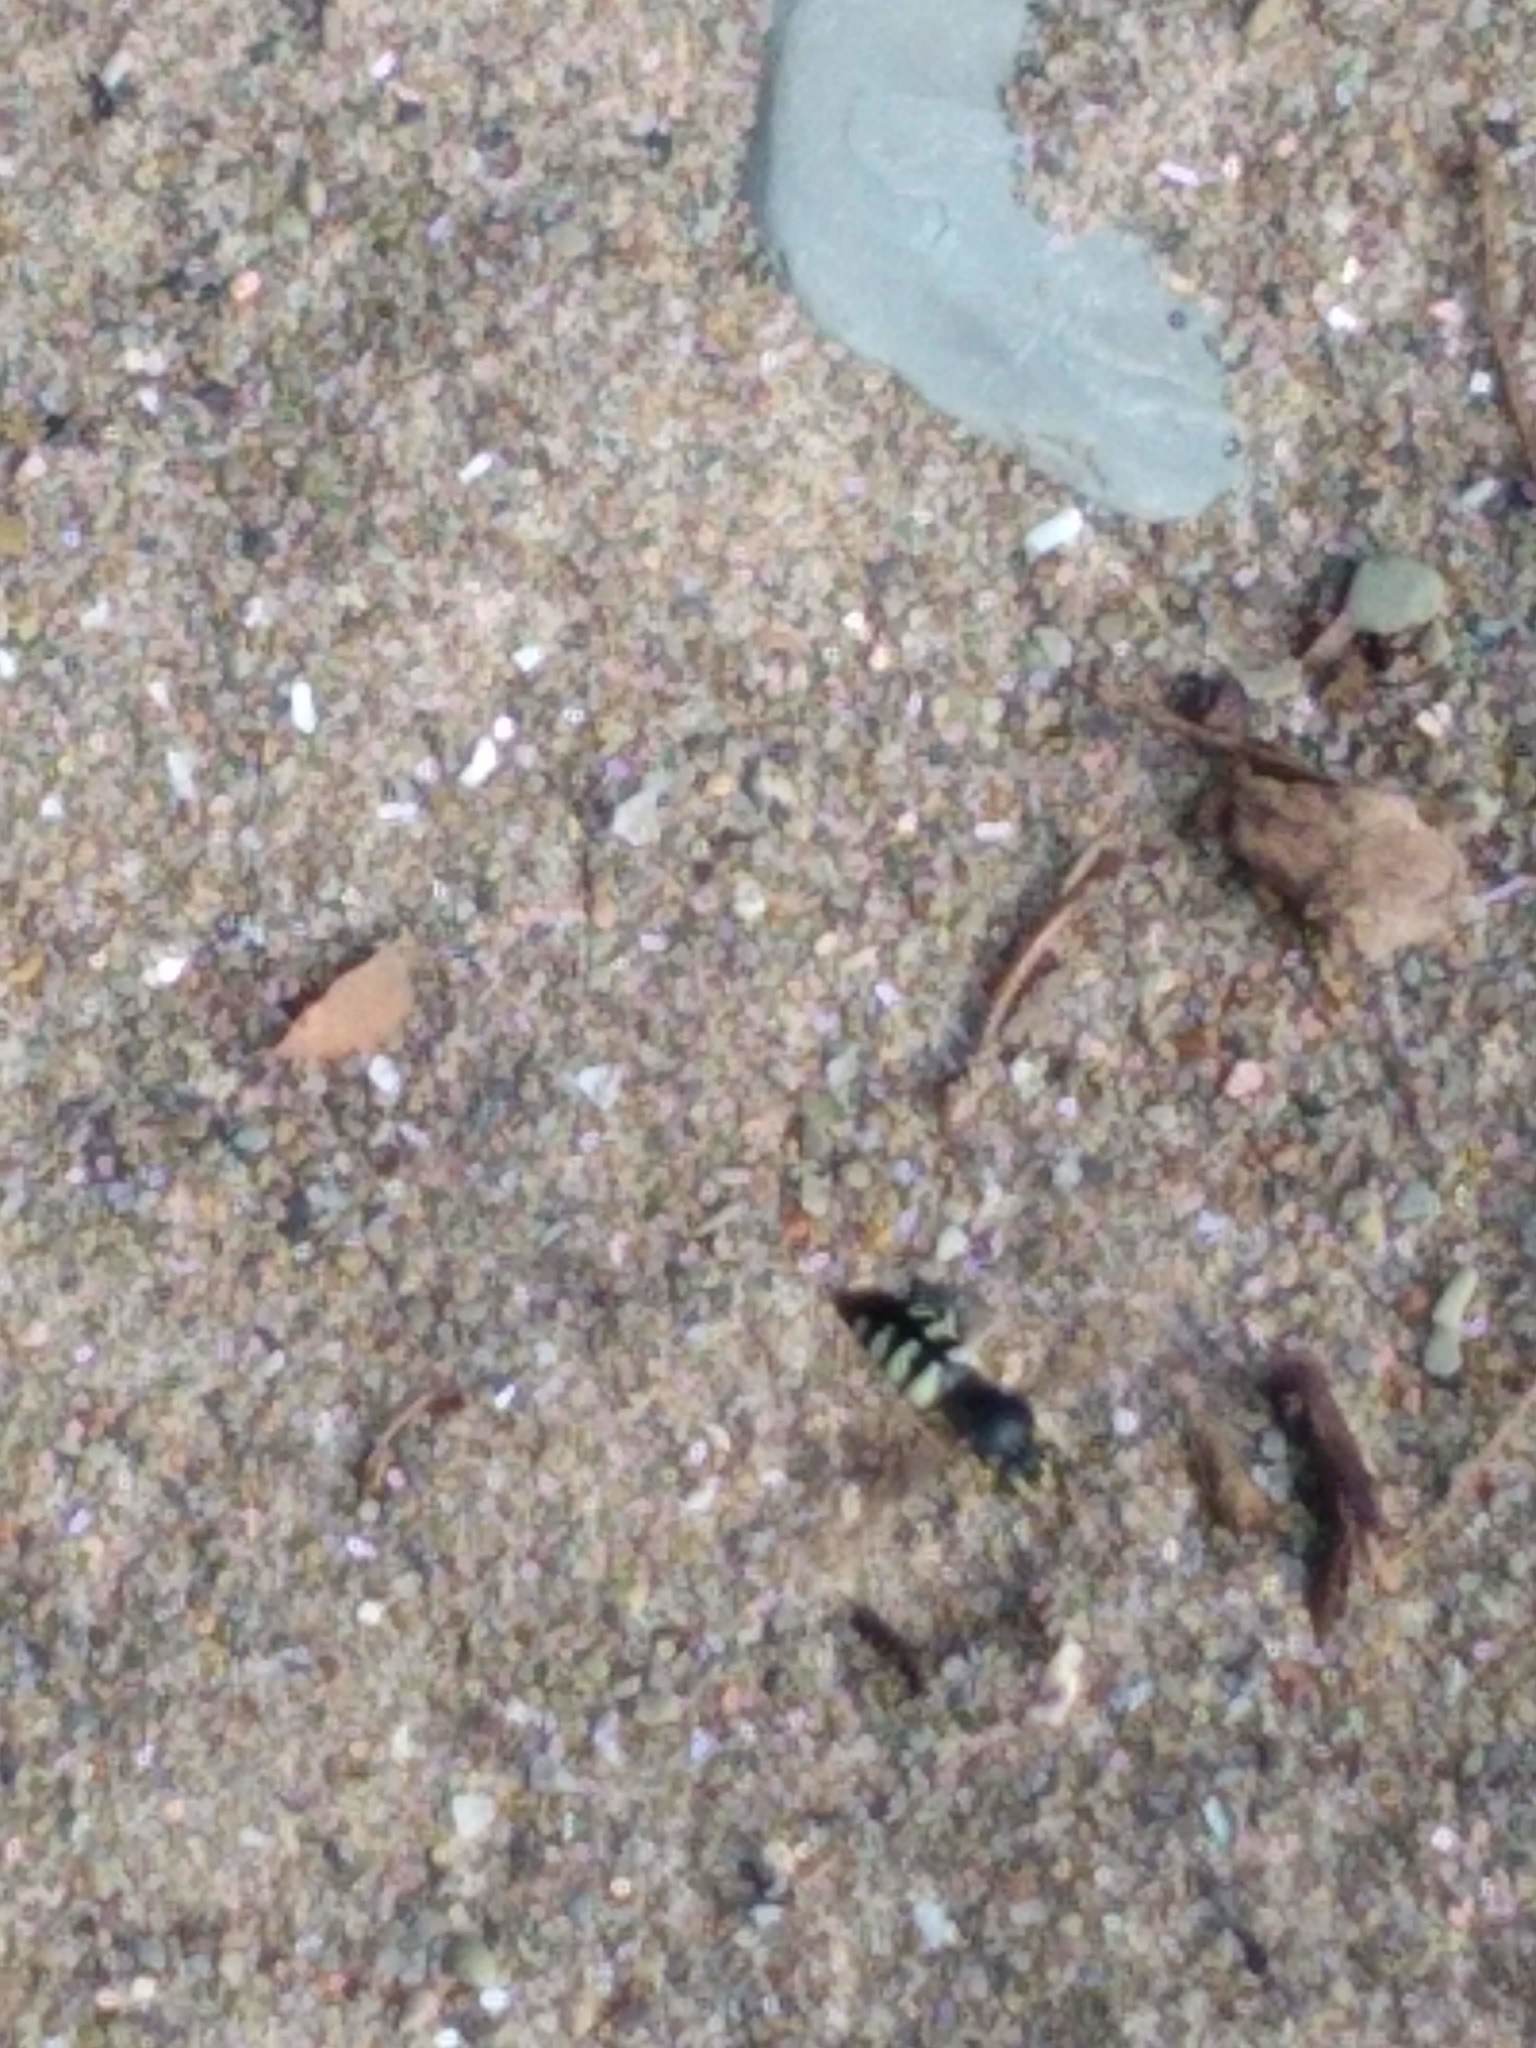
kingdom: Animalia
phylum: Arthropoda
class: Insecta
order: Hymenoptera
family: Crabronidae
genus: Bicyrtes
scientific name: Bicyrtes quadrifasciatus
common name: Four-banded stink bug hunter wasp
